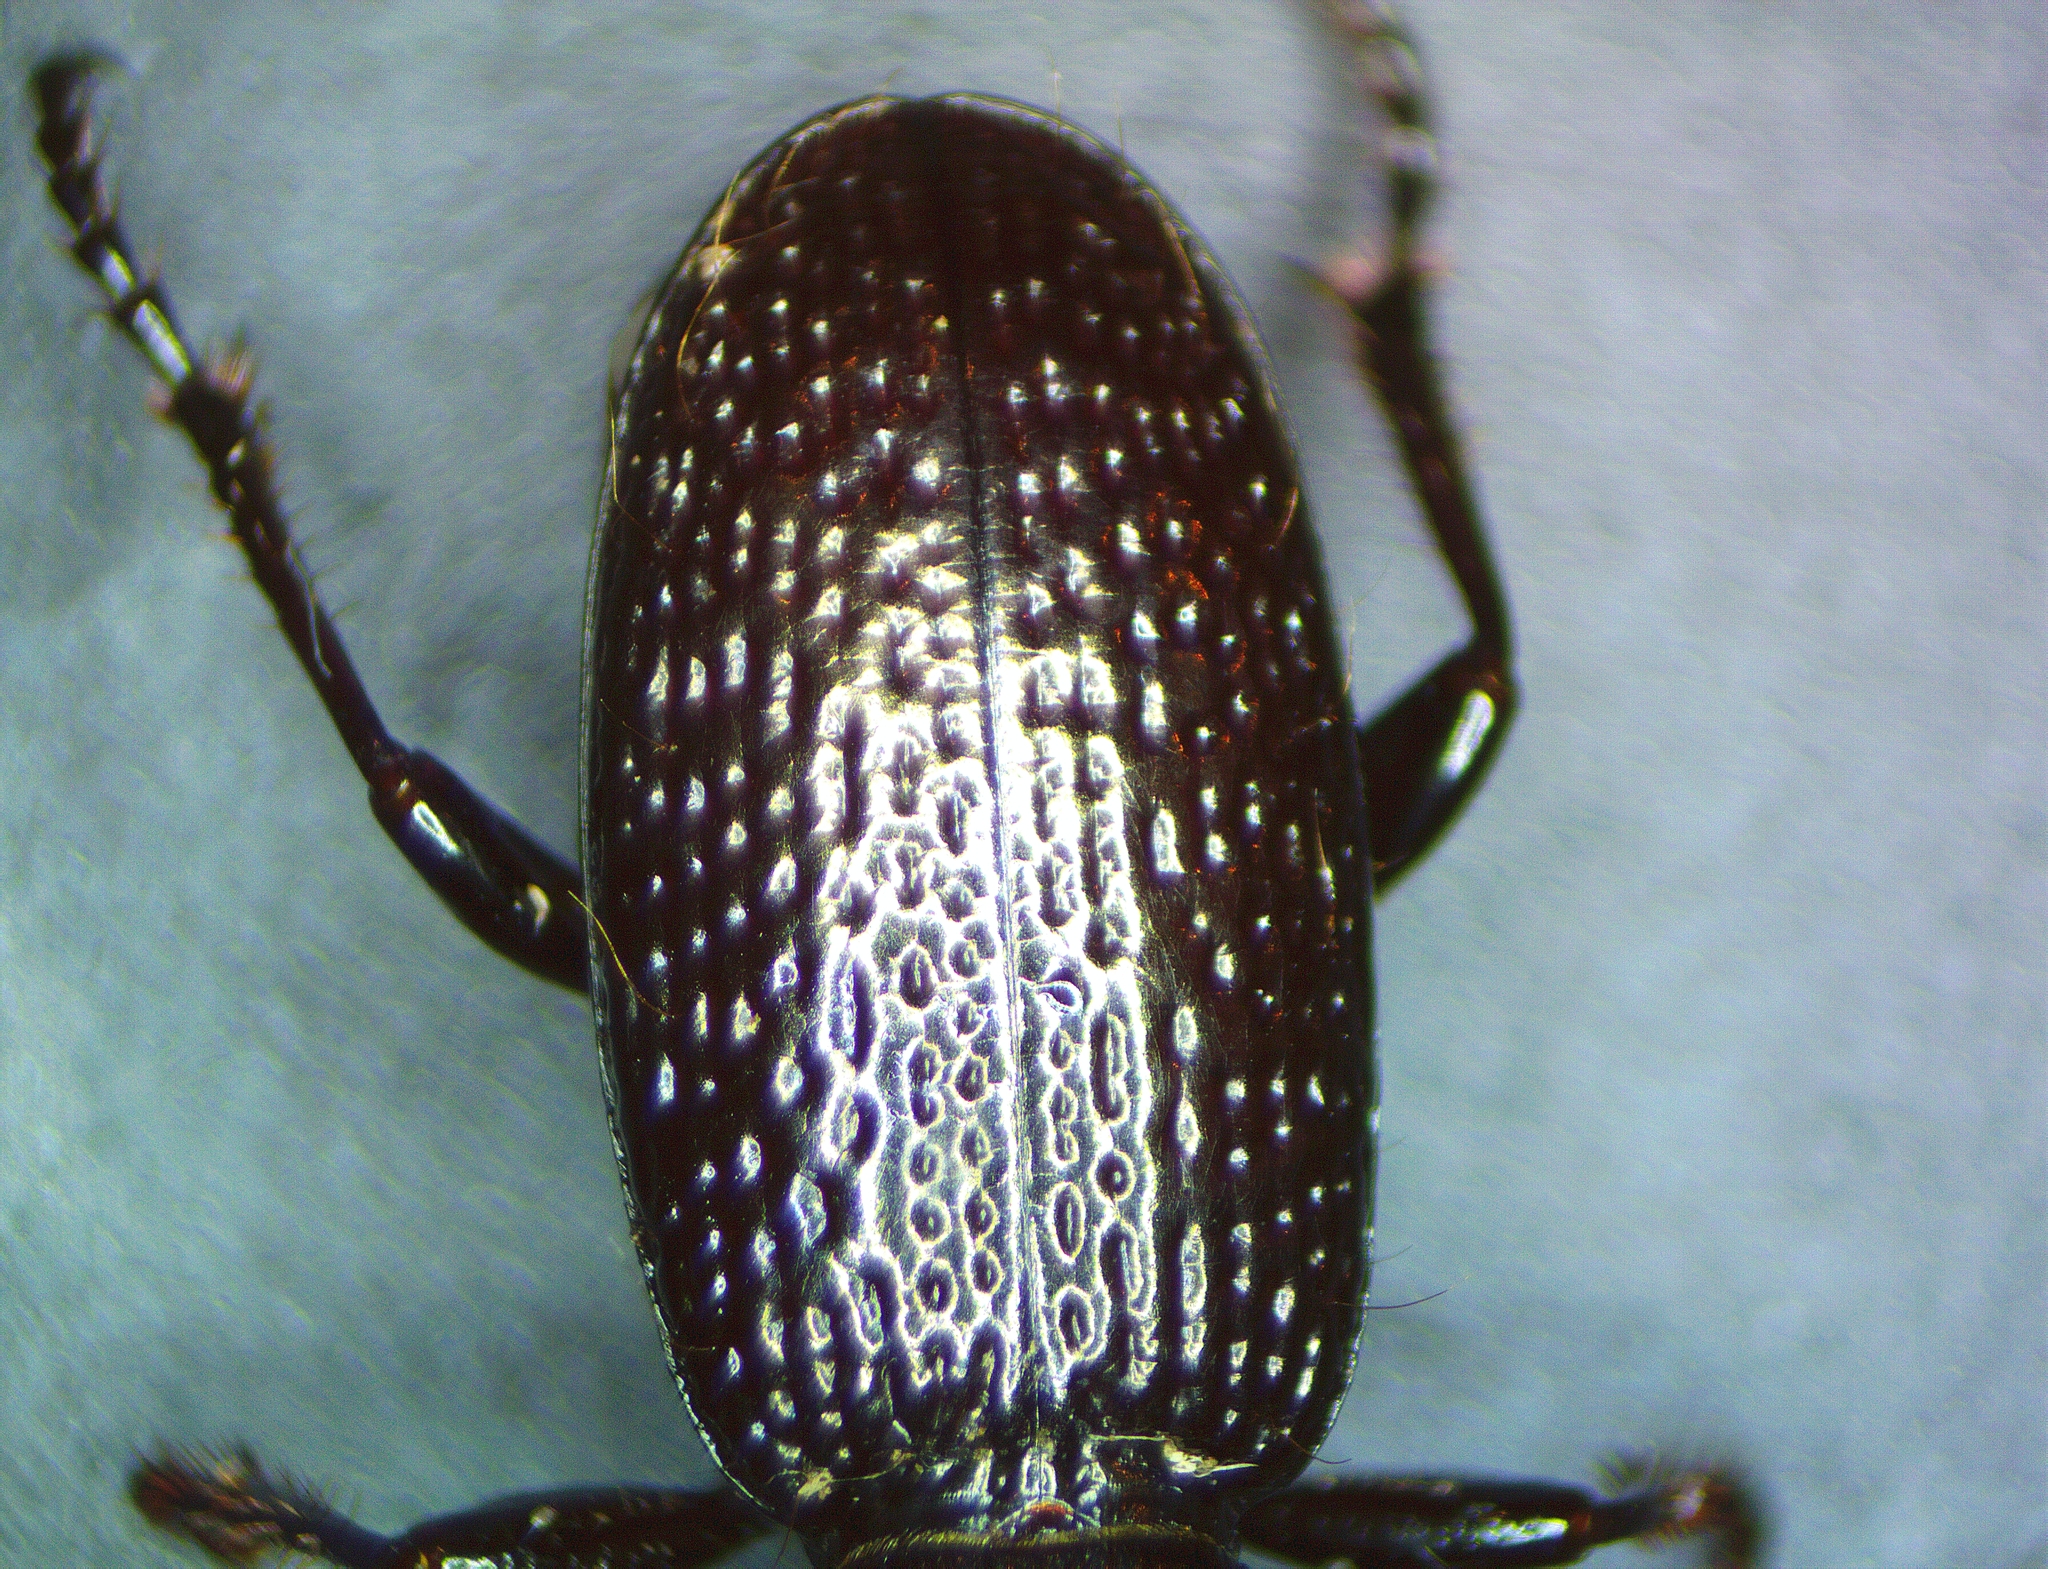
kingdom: Animalia
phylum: Arthropoda
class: Insecta
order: Coleoptera
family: Carabidae
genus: Mecodema
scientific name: Mecodema florae
